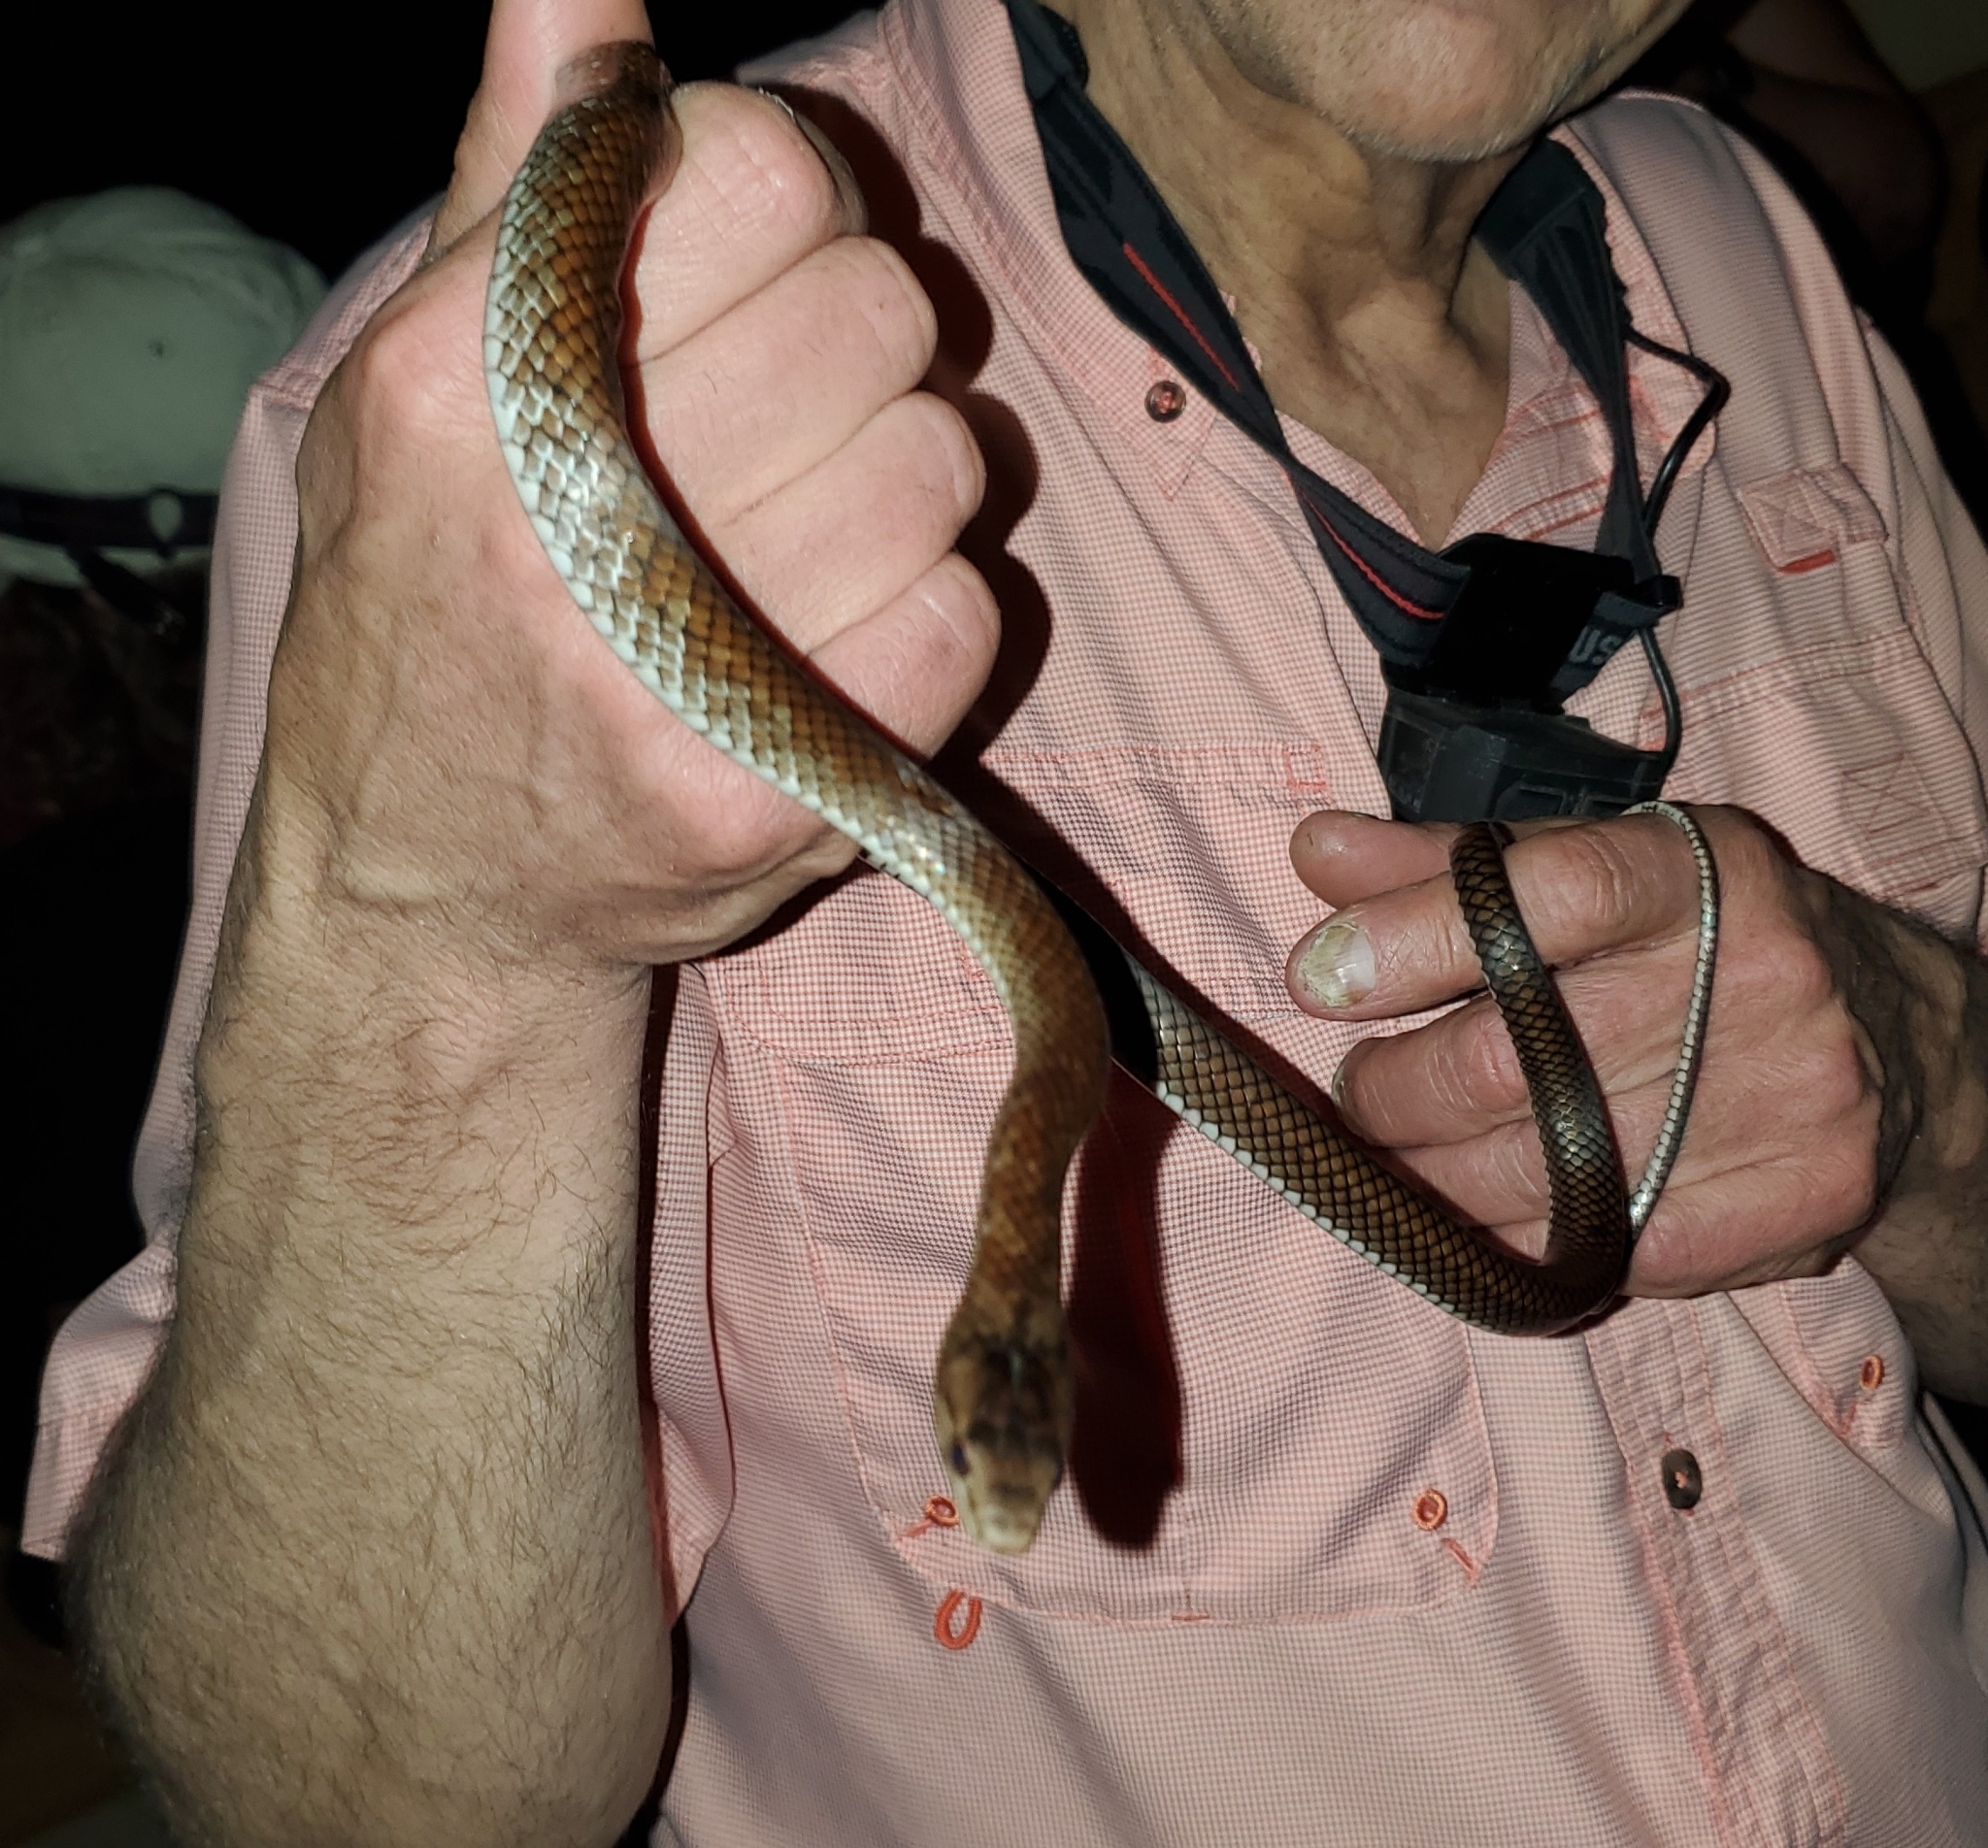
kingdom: Animalia
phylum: Chordata
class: Squamata
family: Colubridae
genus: Borikenophis
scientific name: Borikenophis portoricensis
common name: Puerto rican racer
